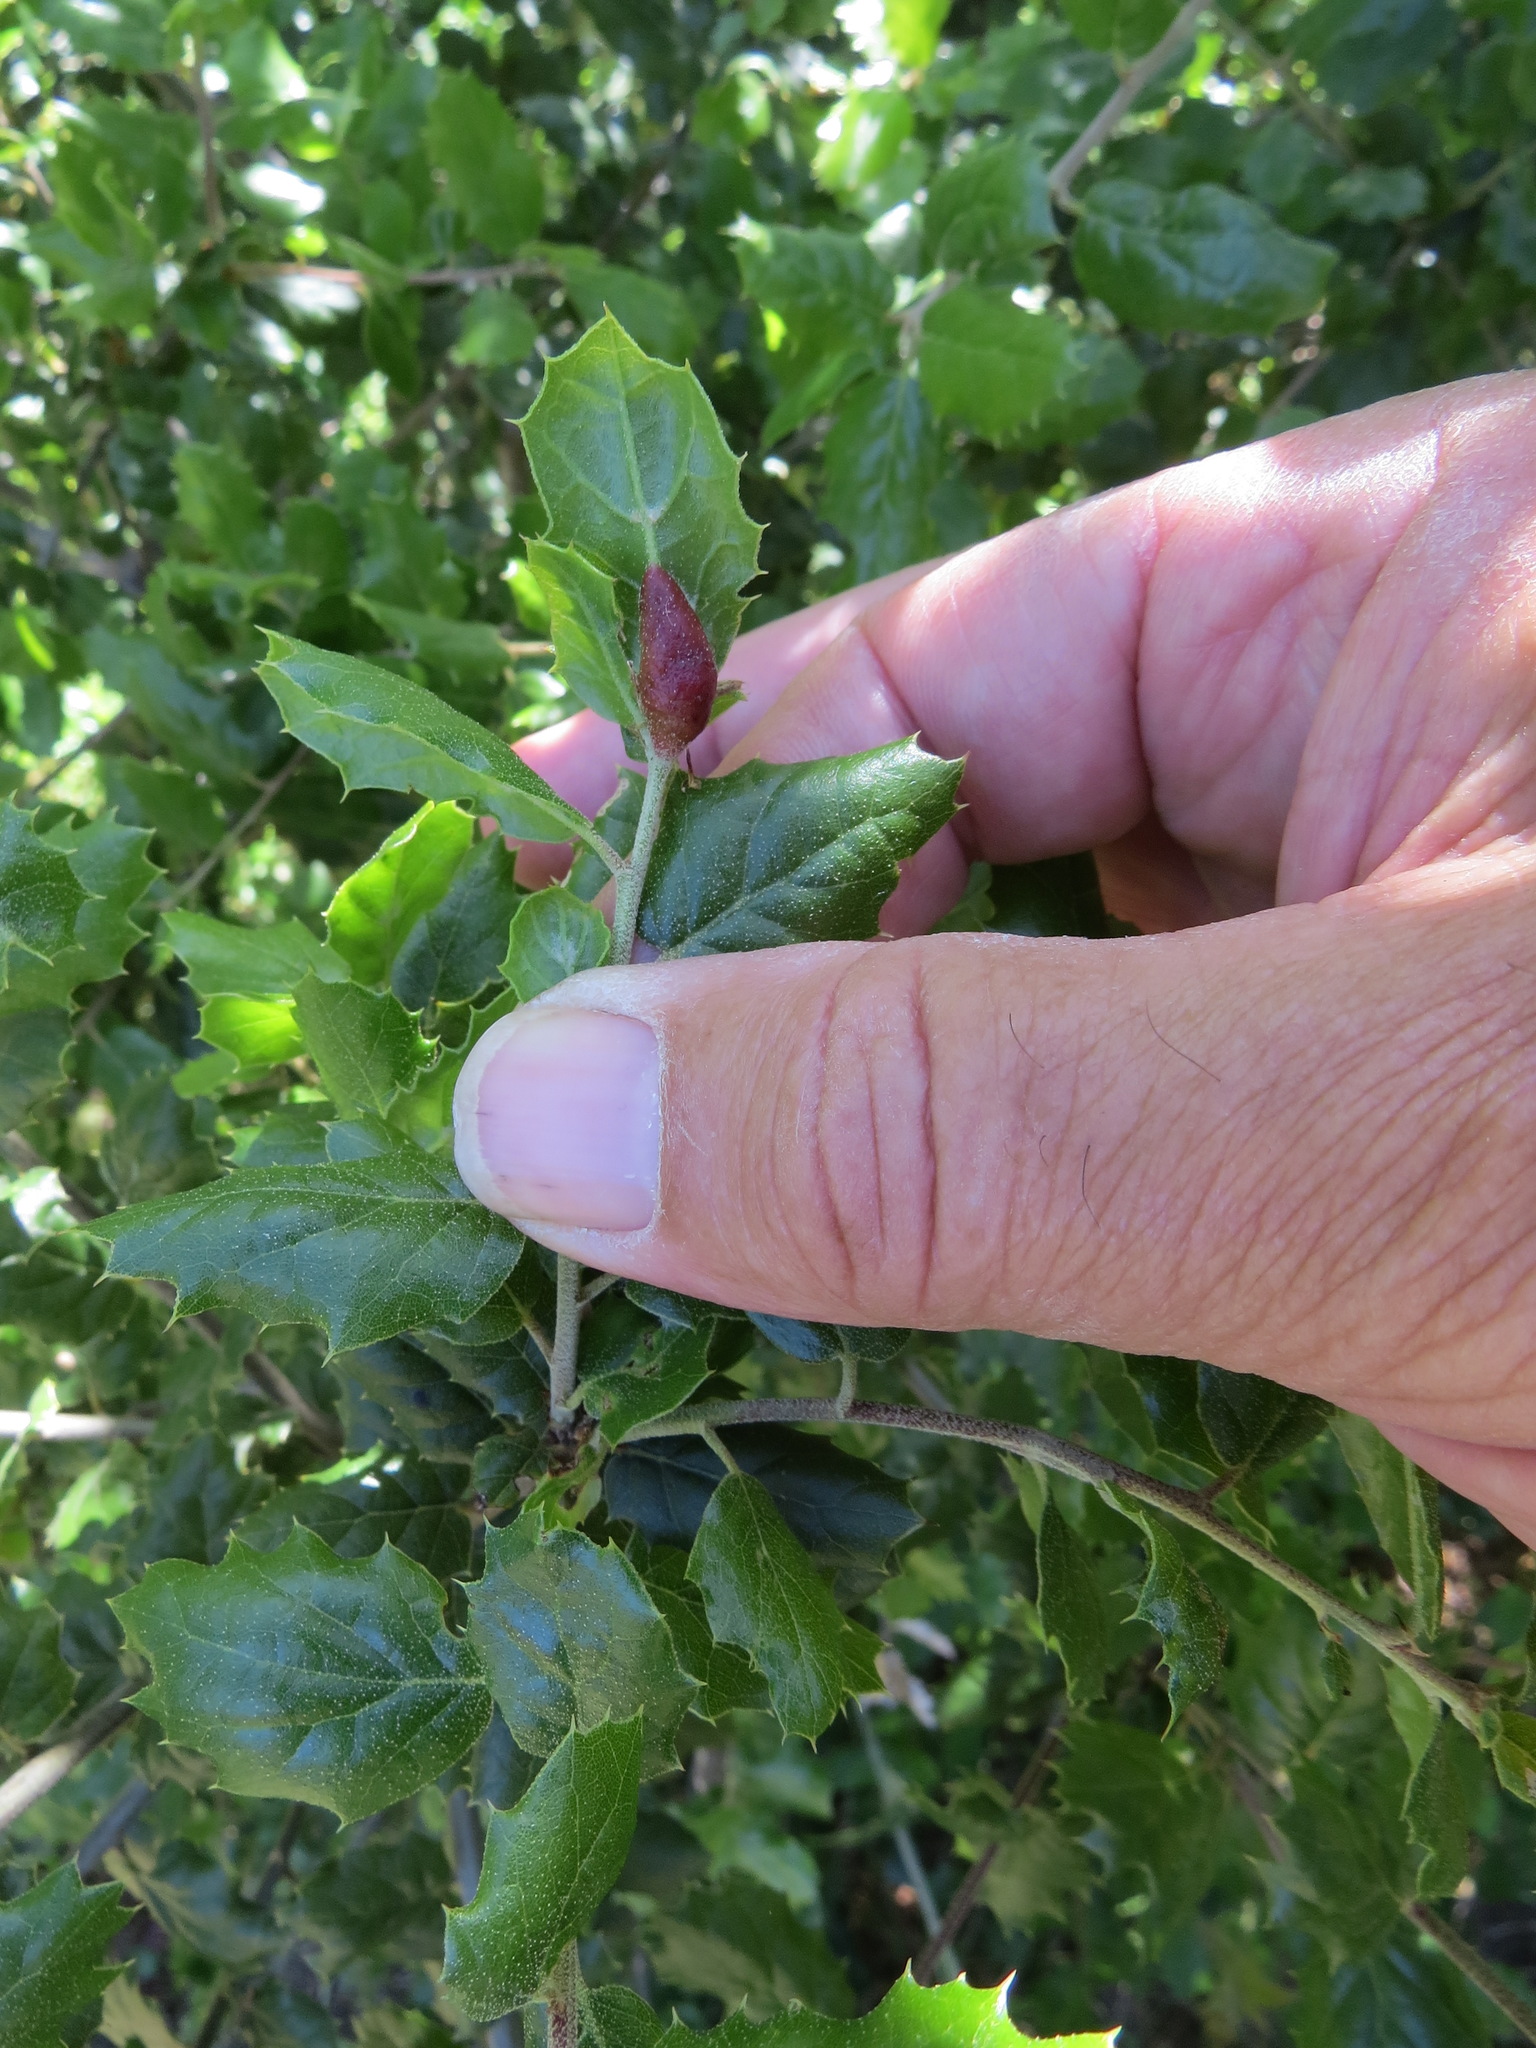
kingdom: Animalia
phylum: Arthropoda
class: Insecta
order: Hymenoptera
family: Cynipidae
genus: Melikaiella
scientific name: Melikaiella
